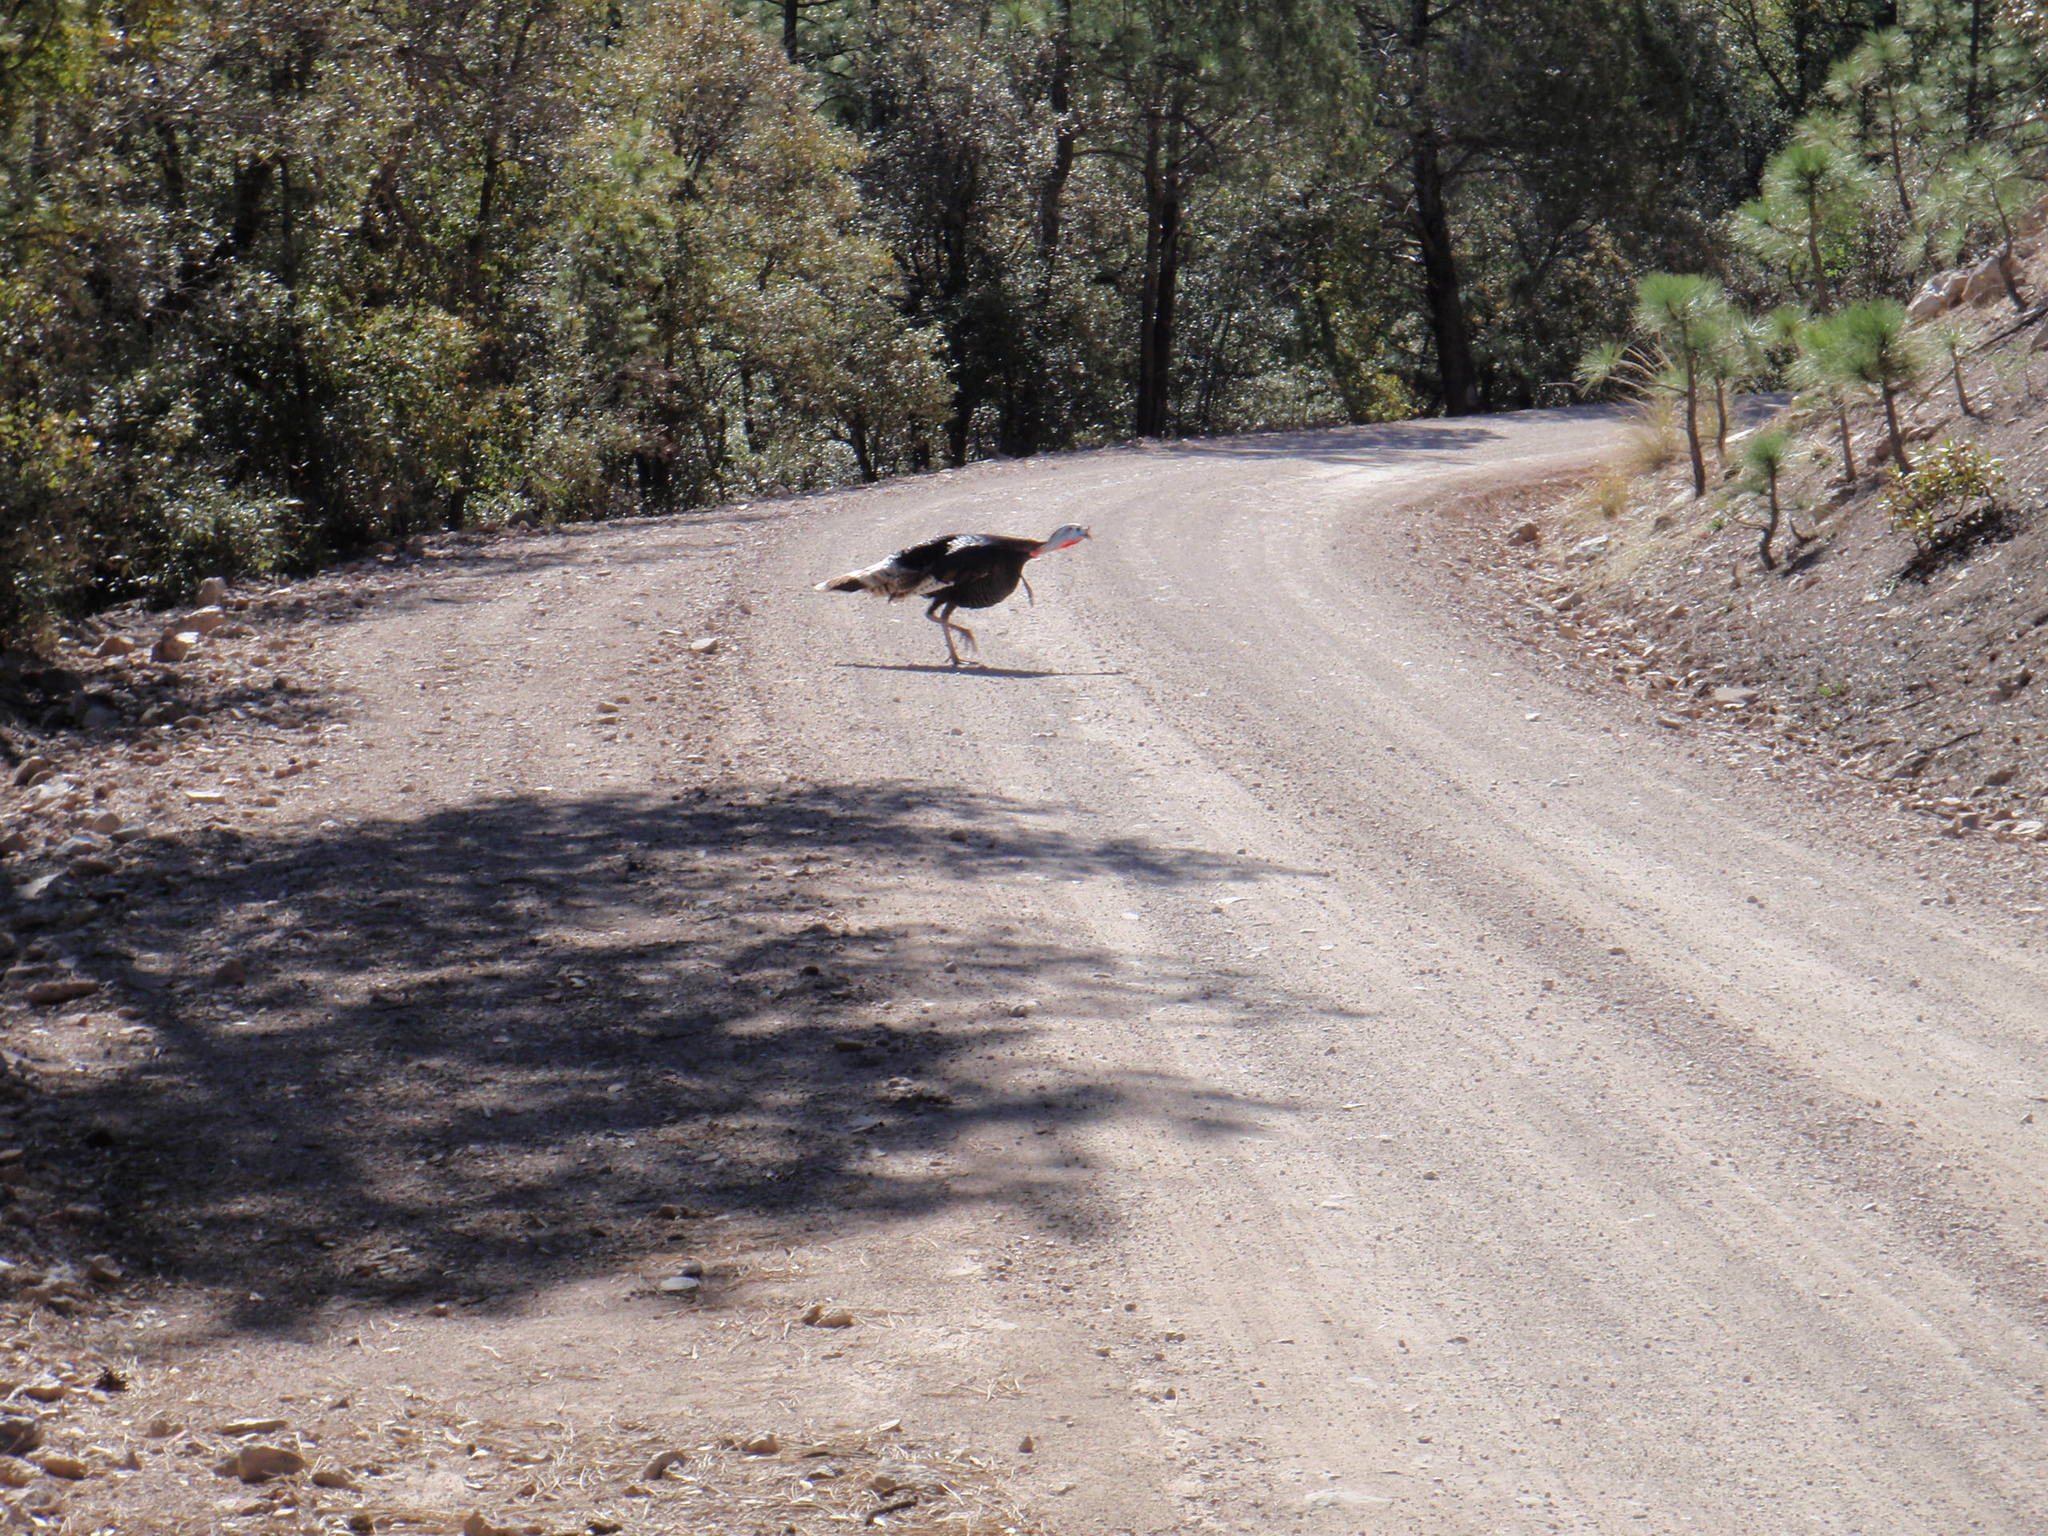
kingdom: Animalia
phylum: Chordata
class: Aves
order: Galliformes
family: Phasianidae
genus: Meleagris
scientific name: Meleagris gallopavo
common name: Wild turkey
